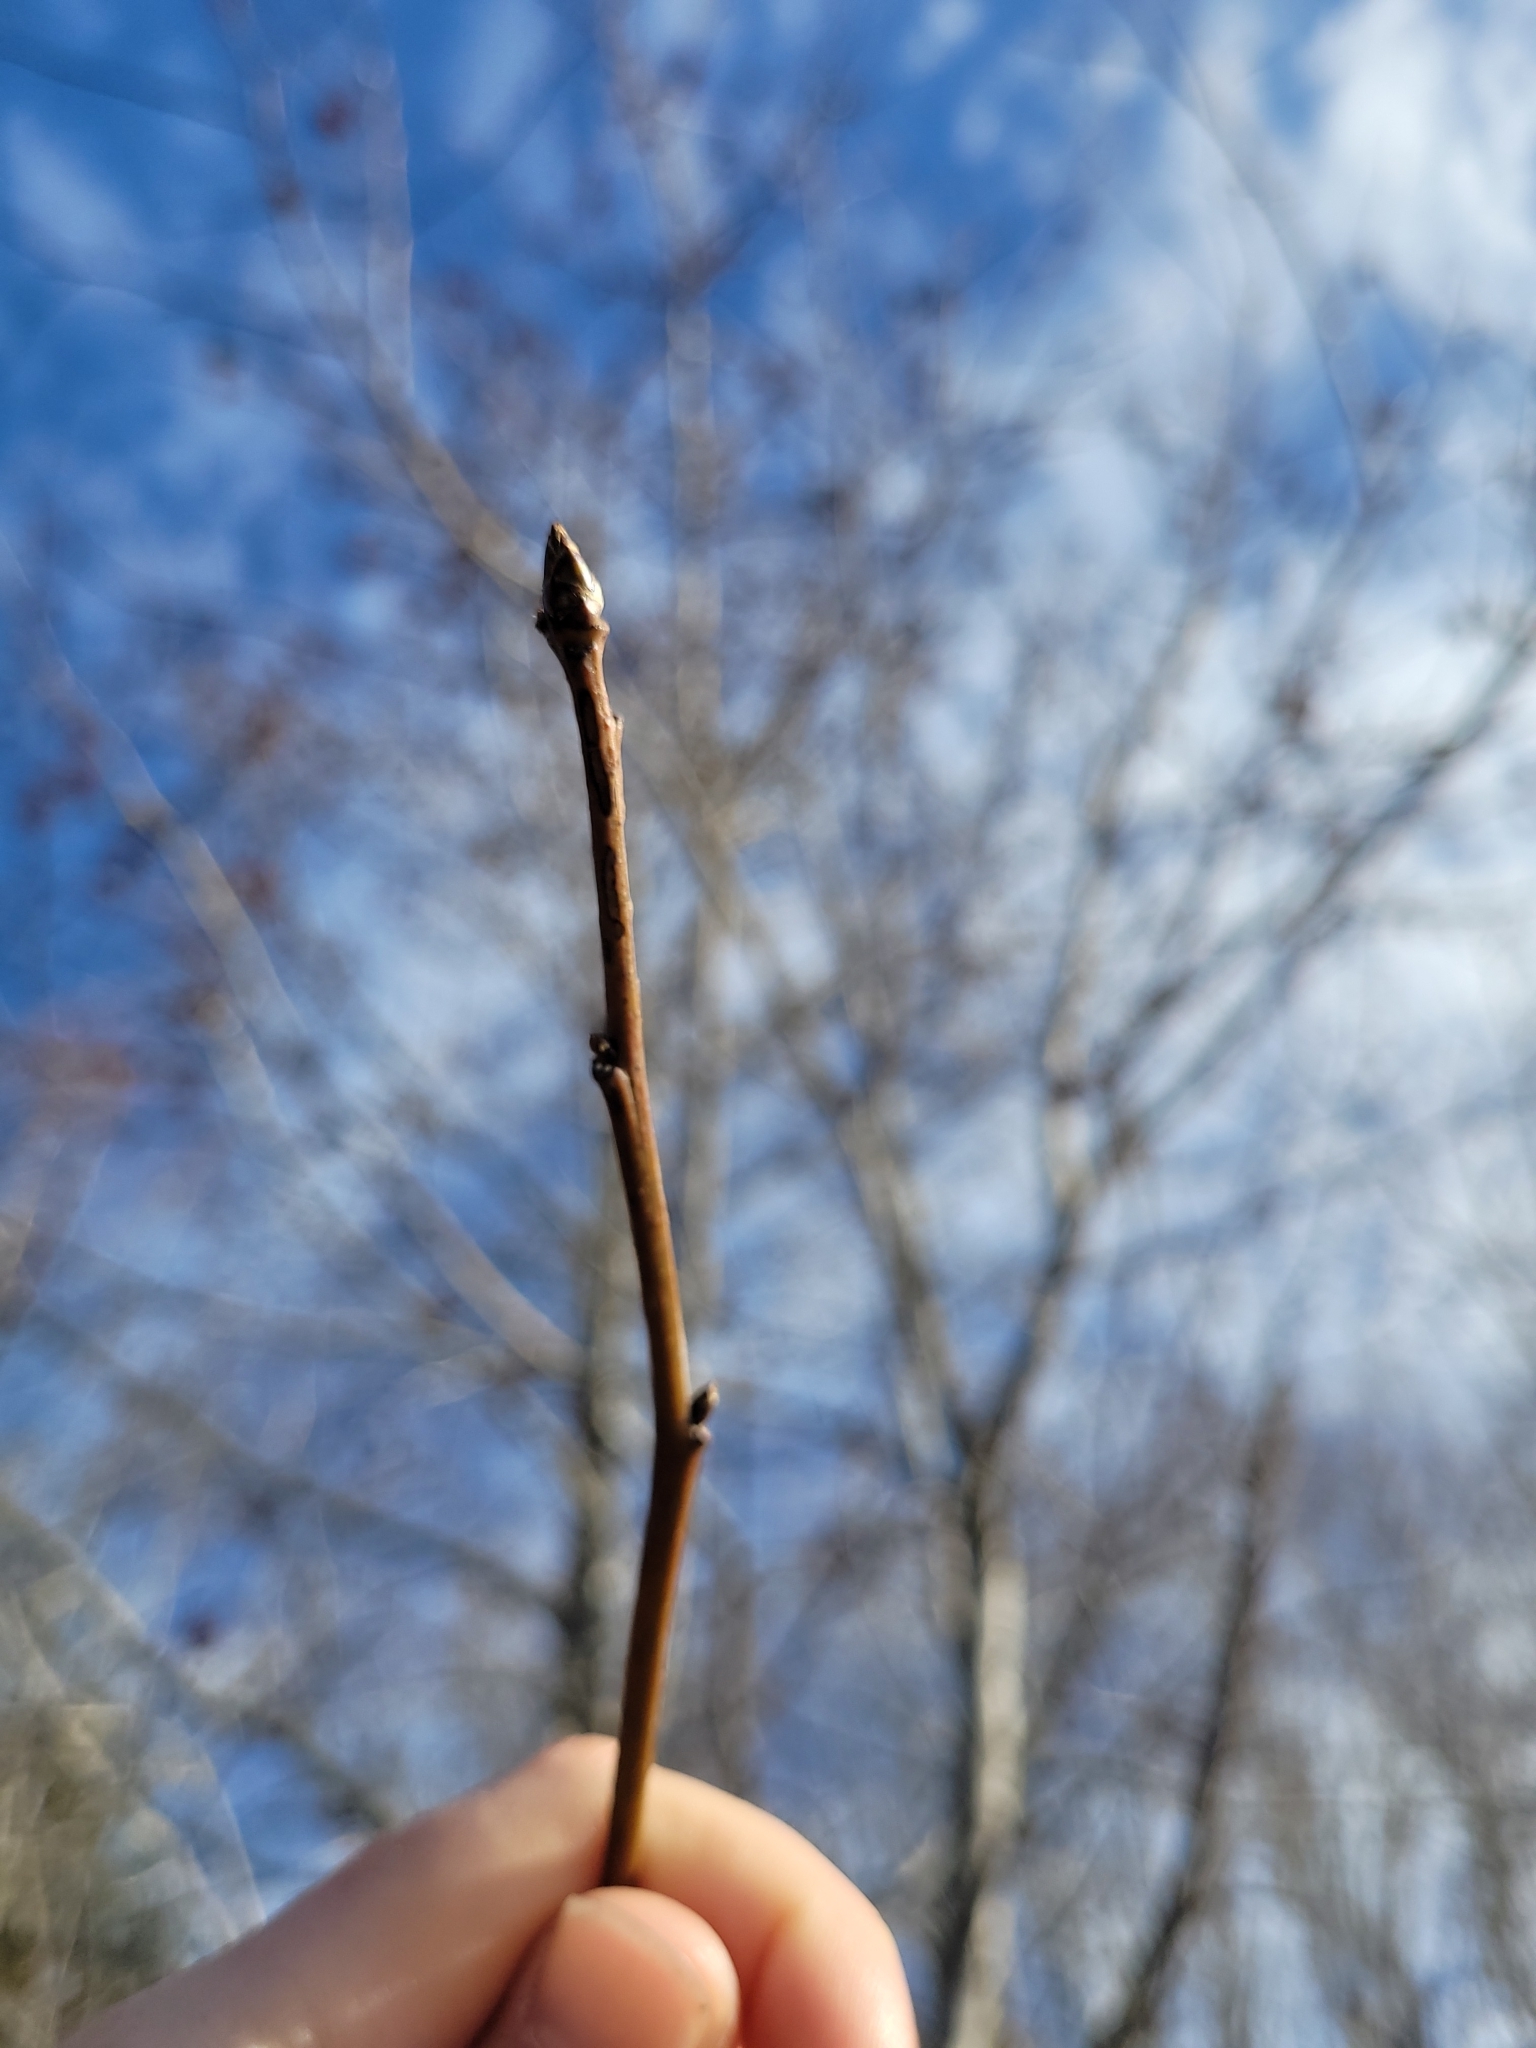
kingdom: Plantae
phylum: Tracheophyta
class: Magnoliopsida
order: Saxifragales
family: Altingiaceae
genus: Liquidambar
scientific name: Liquidambar styraciflua
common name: Sweet gum
